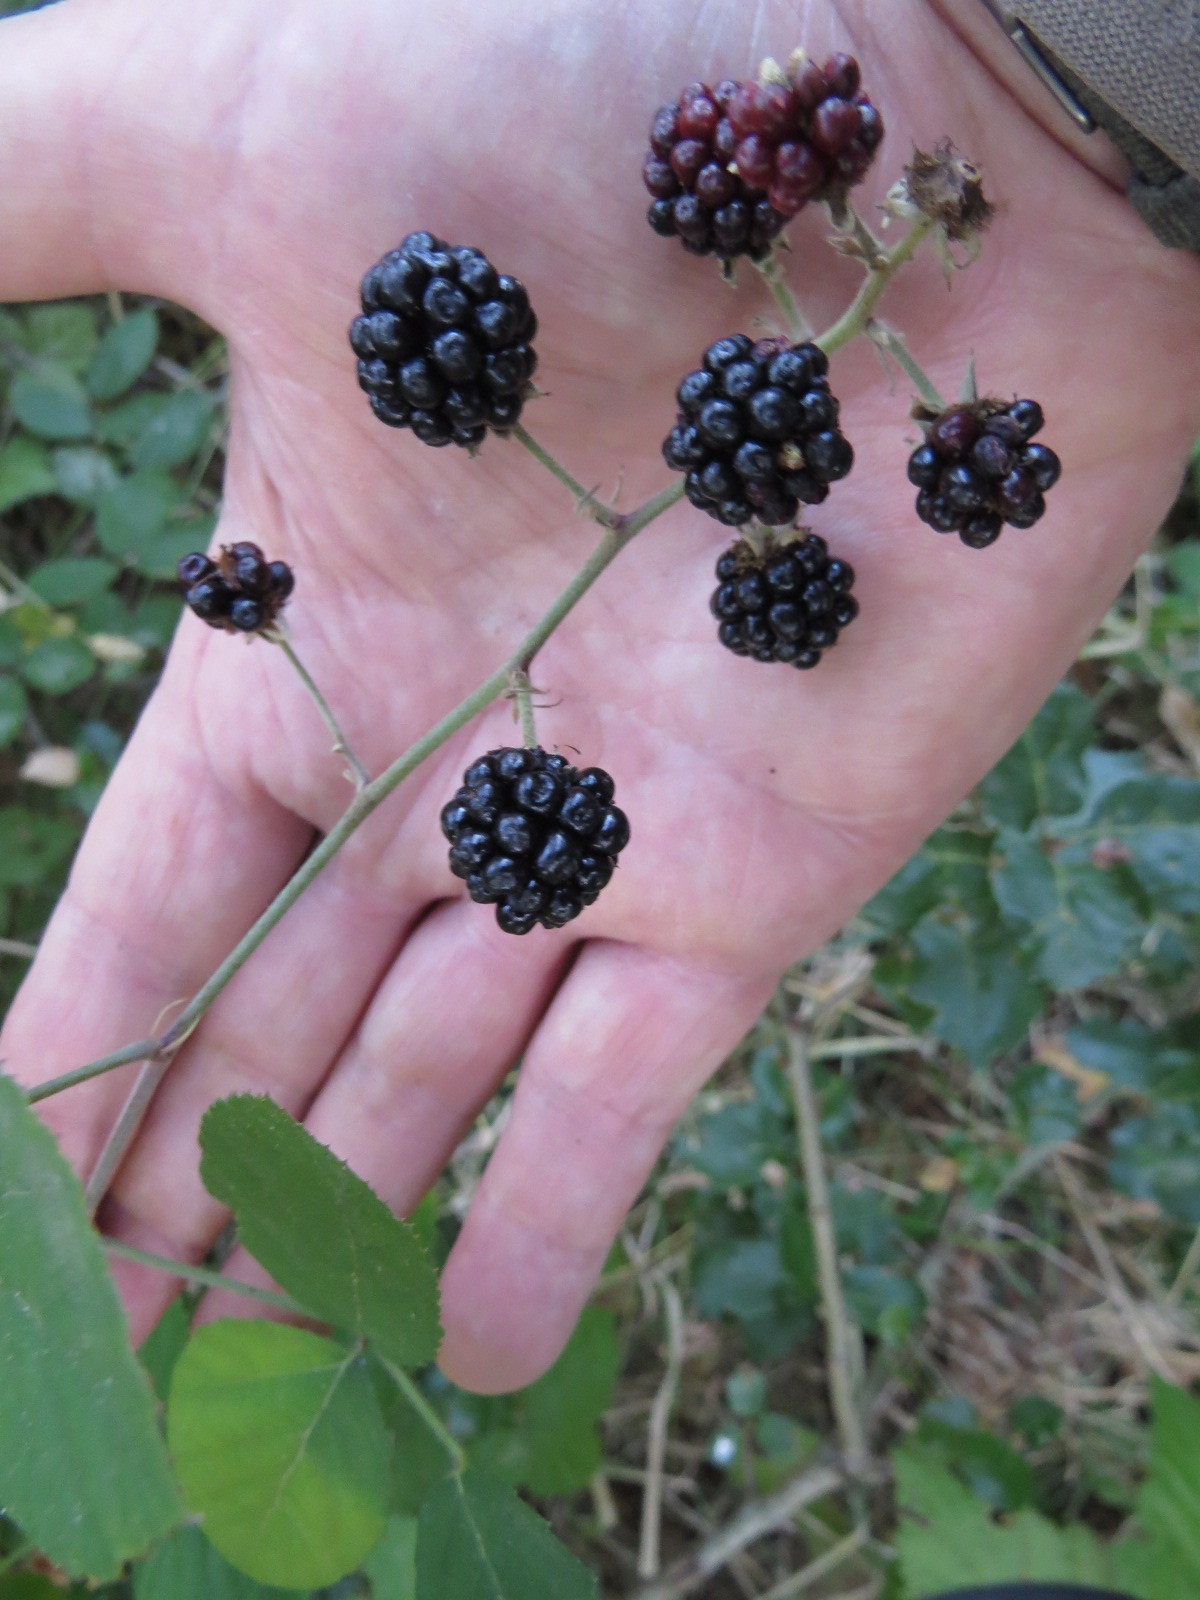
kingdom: Plantae
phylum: Tracheophyta
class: Magnoliopsida
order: Rosales
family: Rosaceae
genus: Rubus
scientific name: Rubus ulmifolius
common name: Elmleaf blackberry
